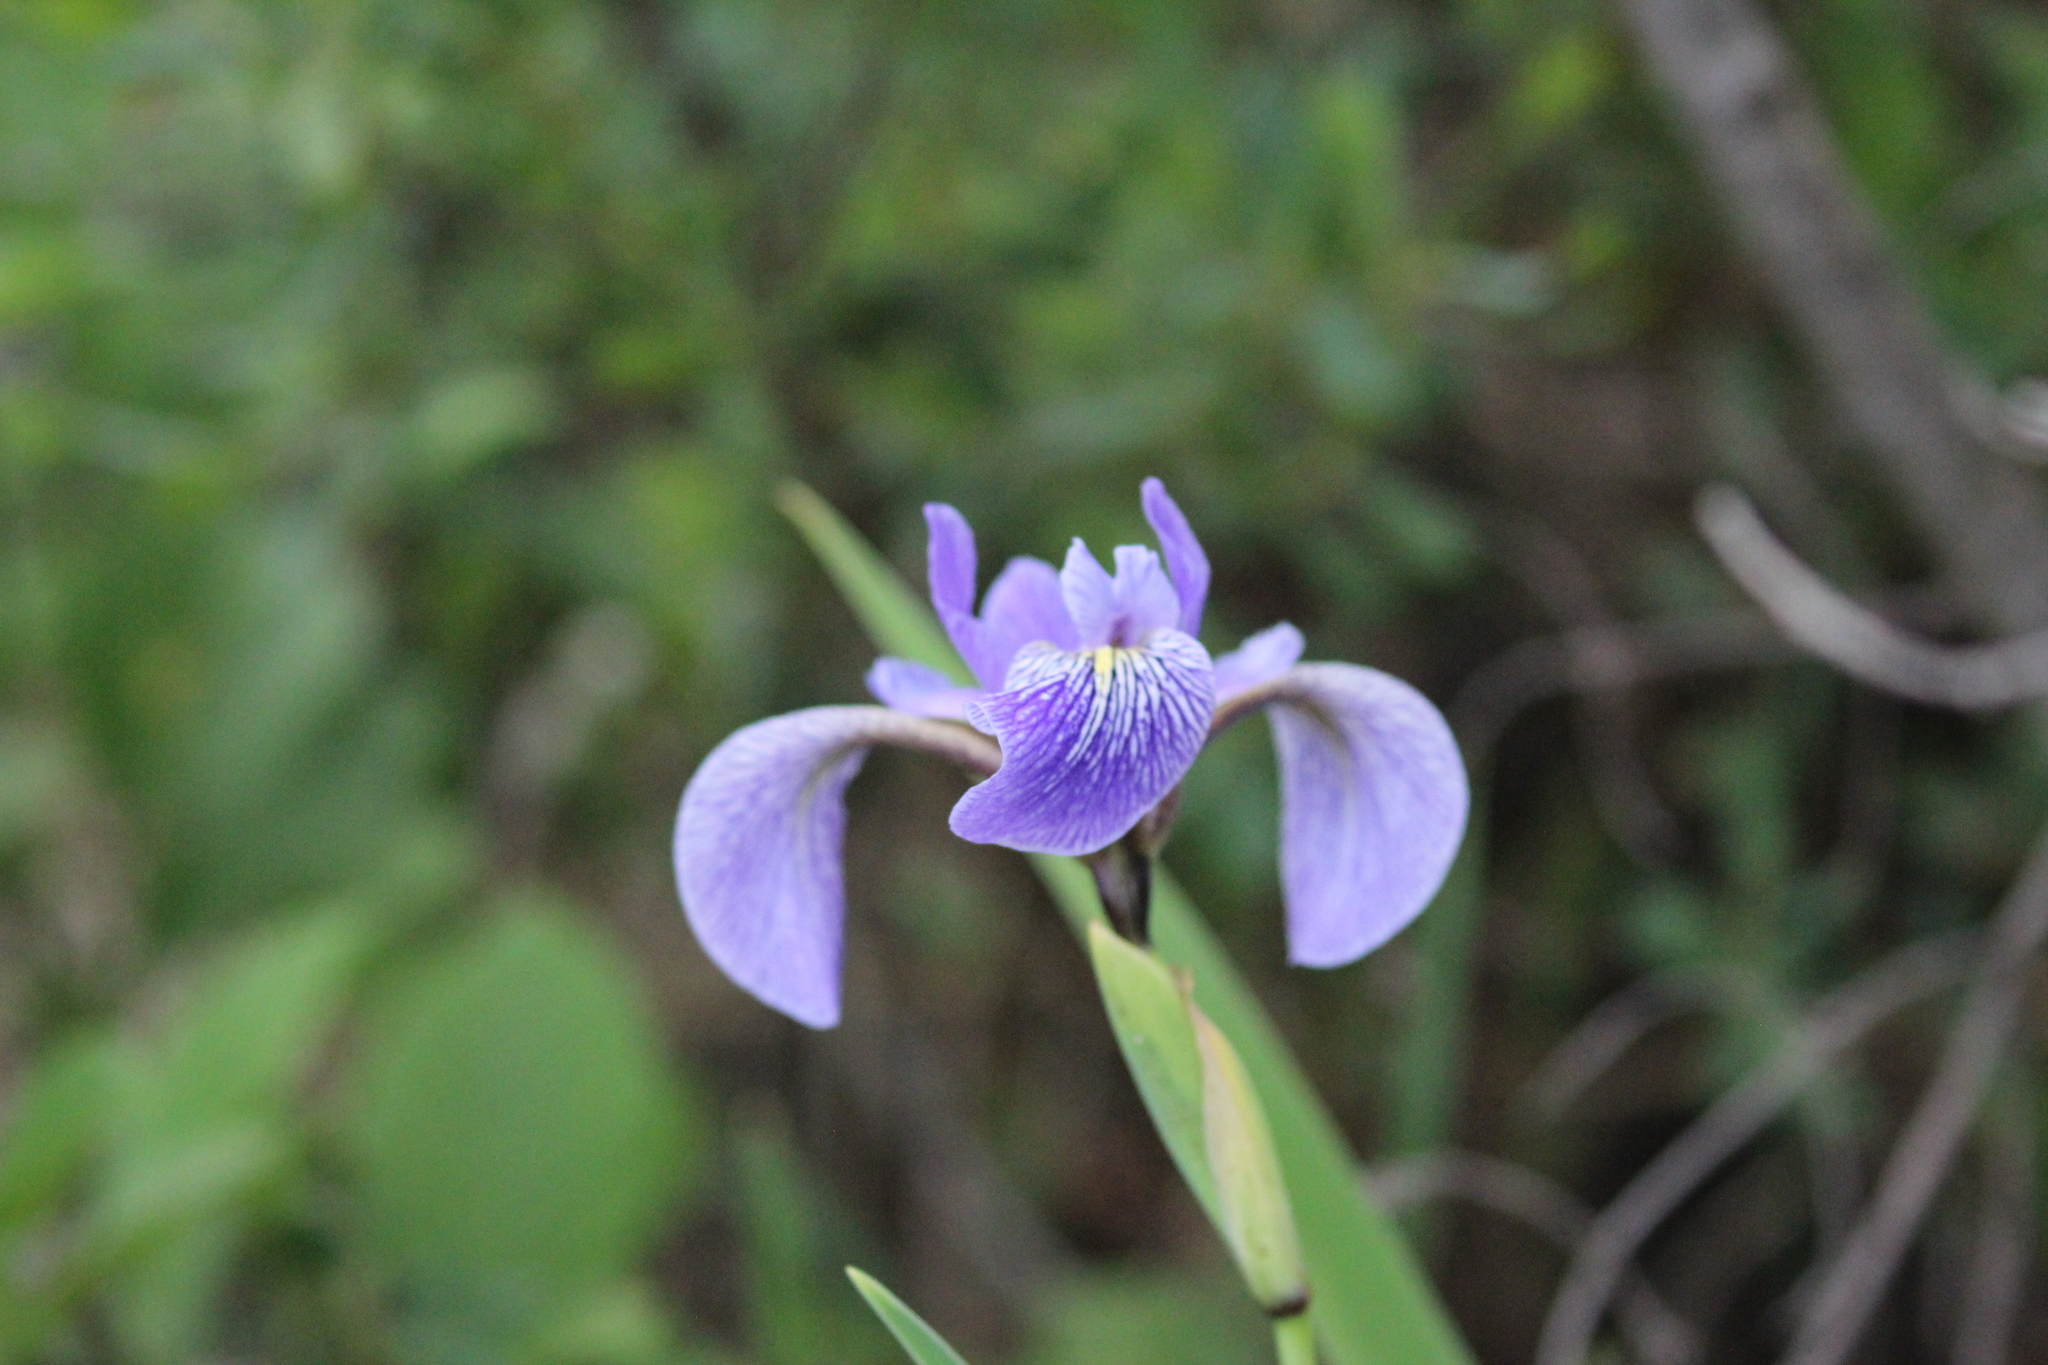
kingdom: Plantae
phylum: Tracheophyta
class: Liliopsida
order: Asparagales
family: Iridaceae
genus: Iris
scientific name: Iris versicolor
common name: Purple iris
